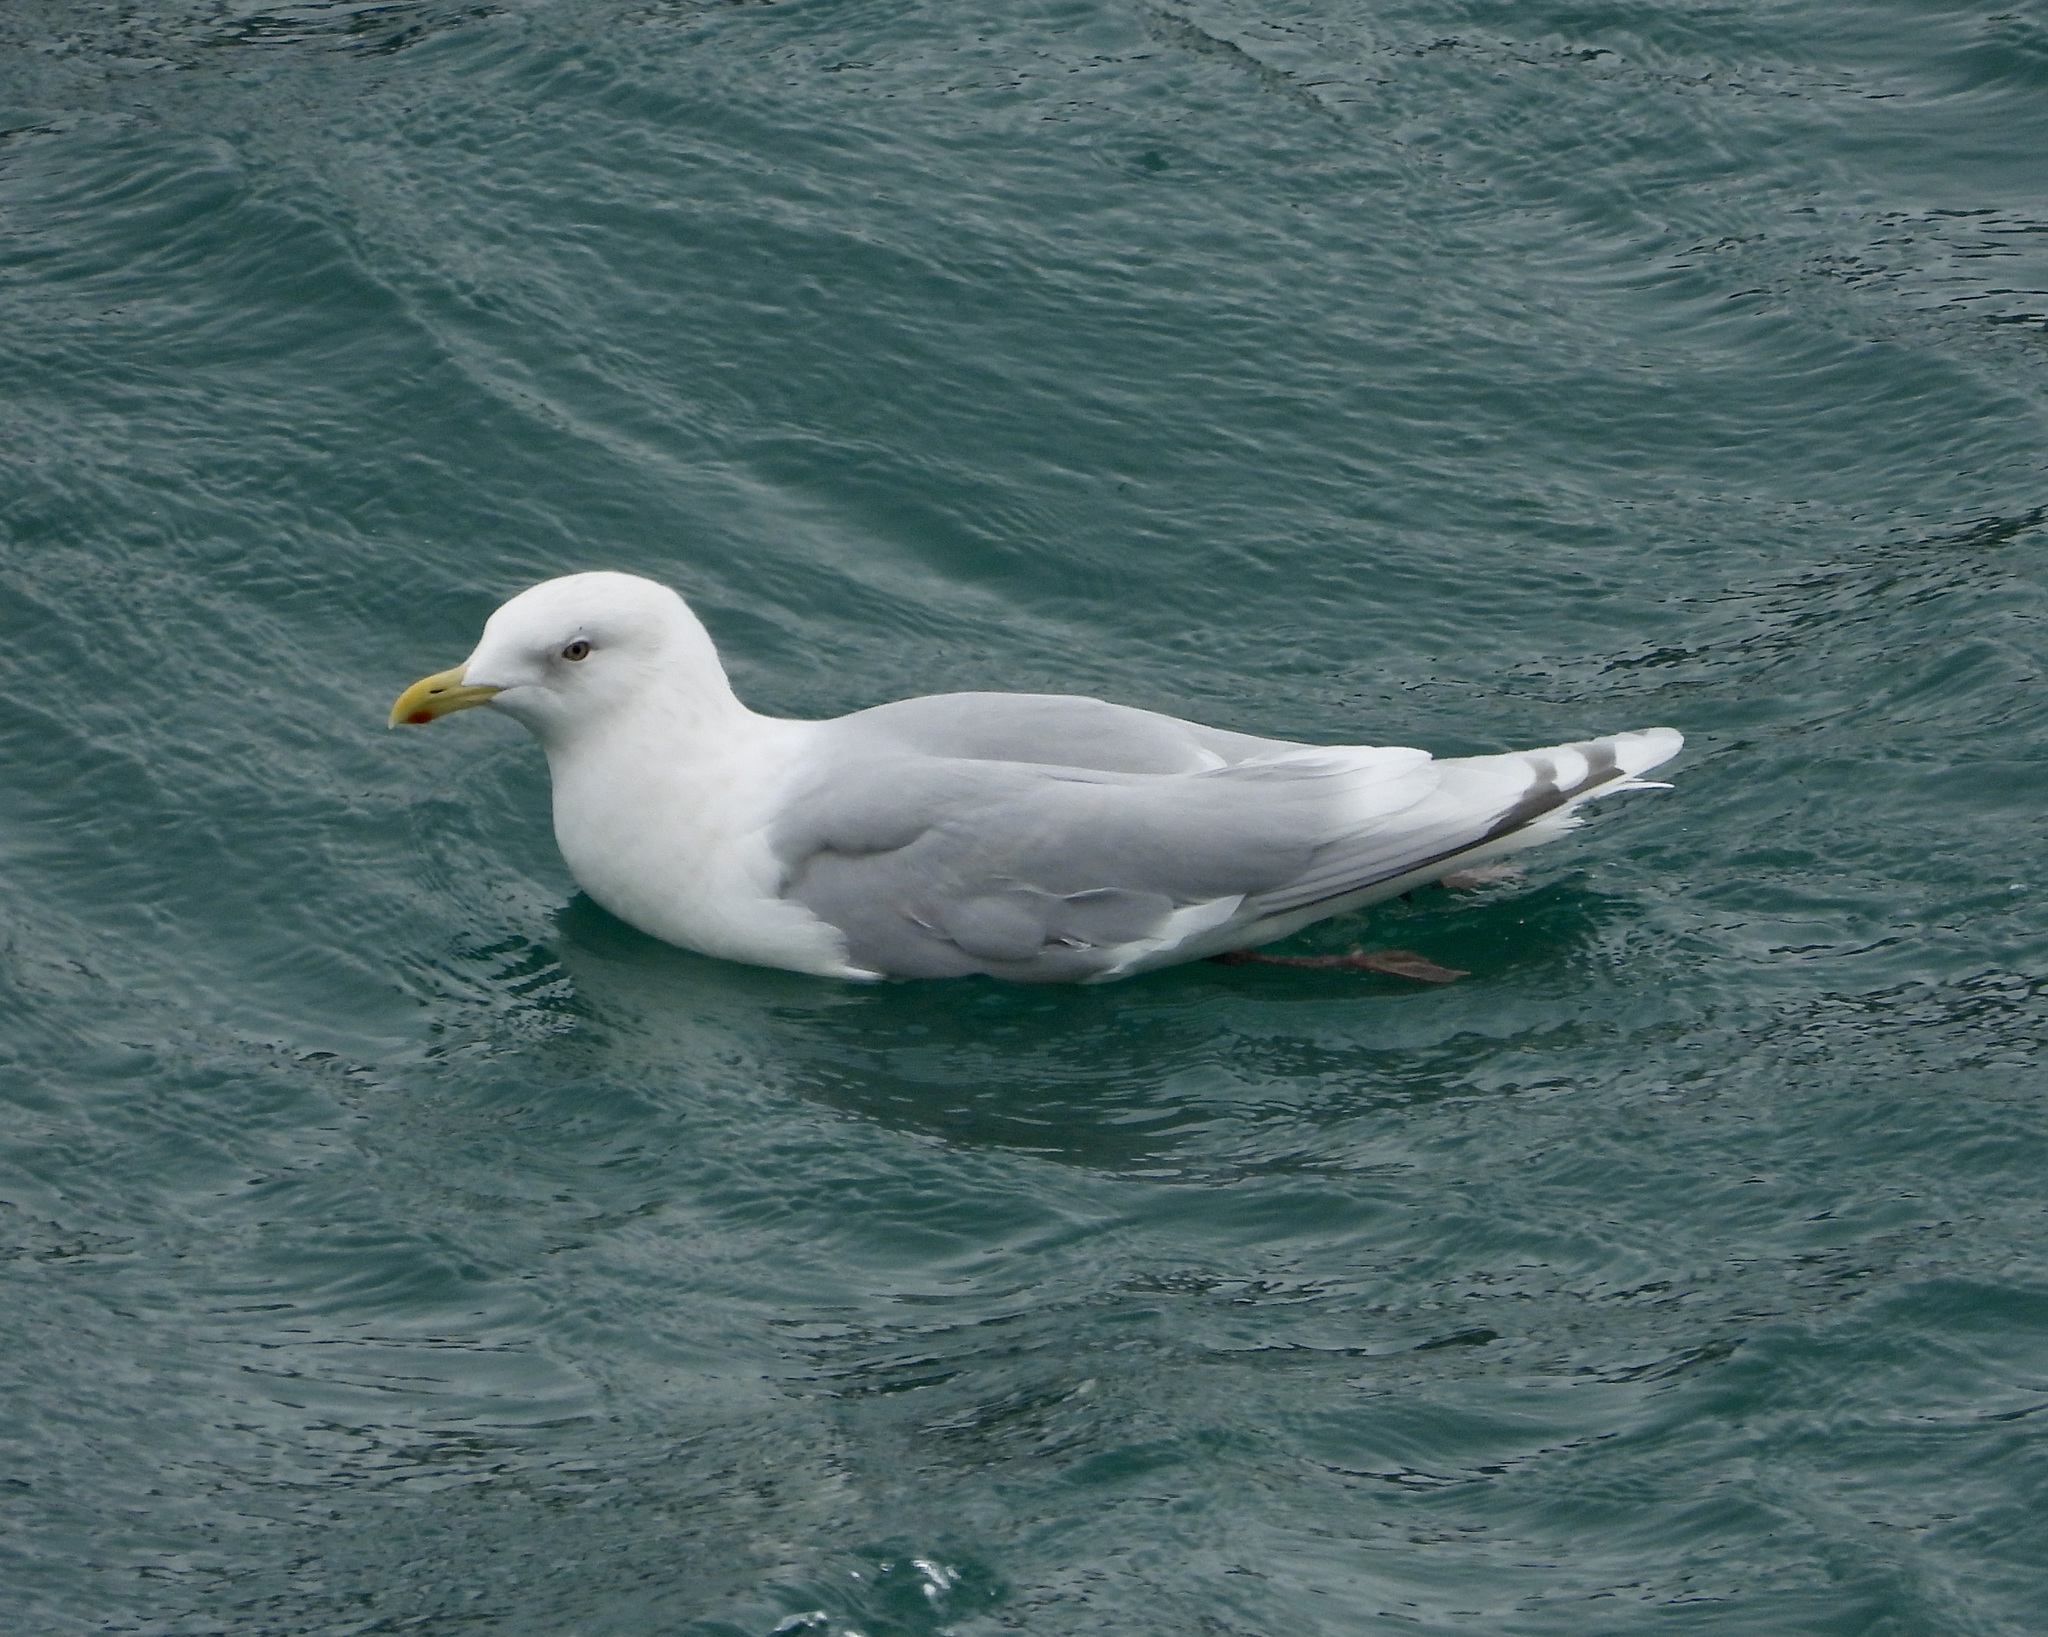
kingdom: Animalia
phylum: Chordata
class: Aves
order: Charadriiformes
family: Laridae
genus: Larus
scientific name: Larus glaucoides
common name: Iceland gull
